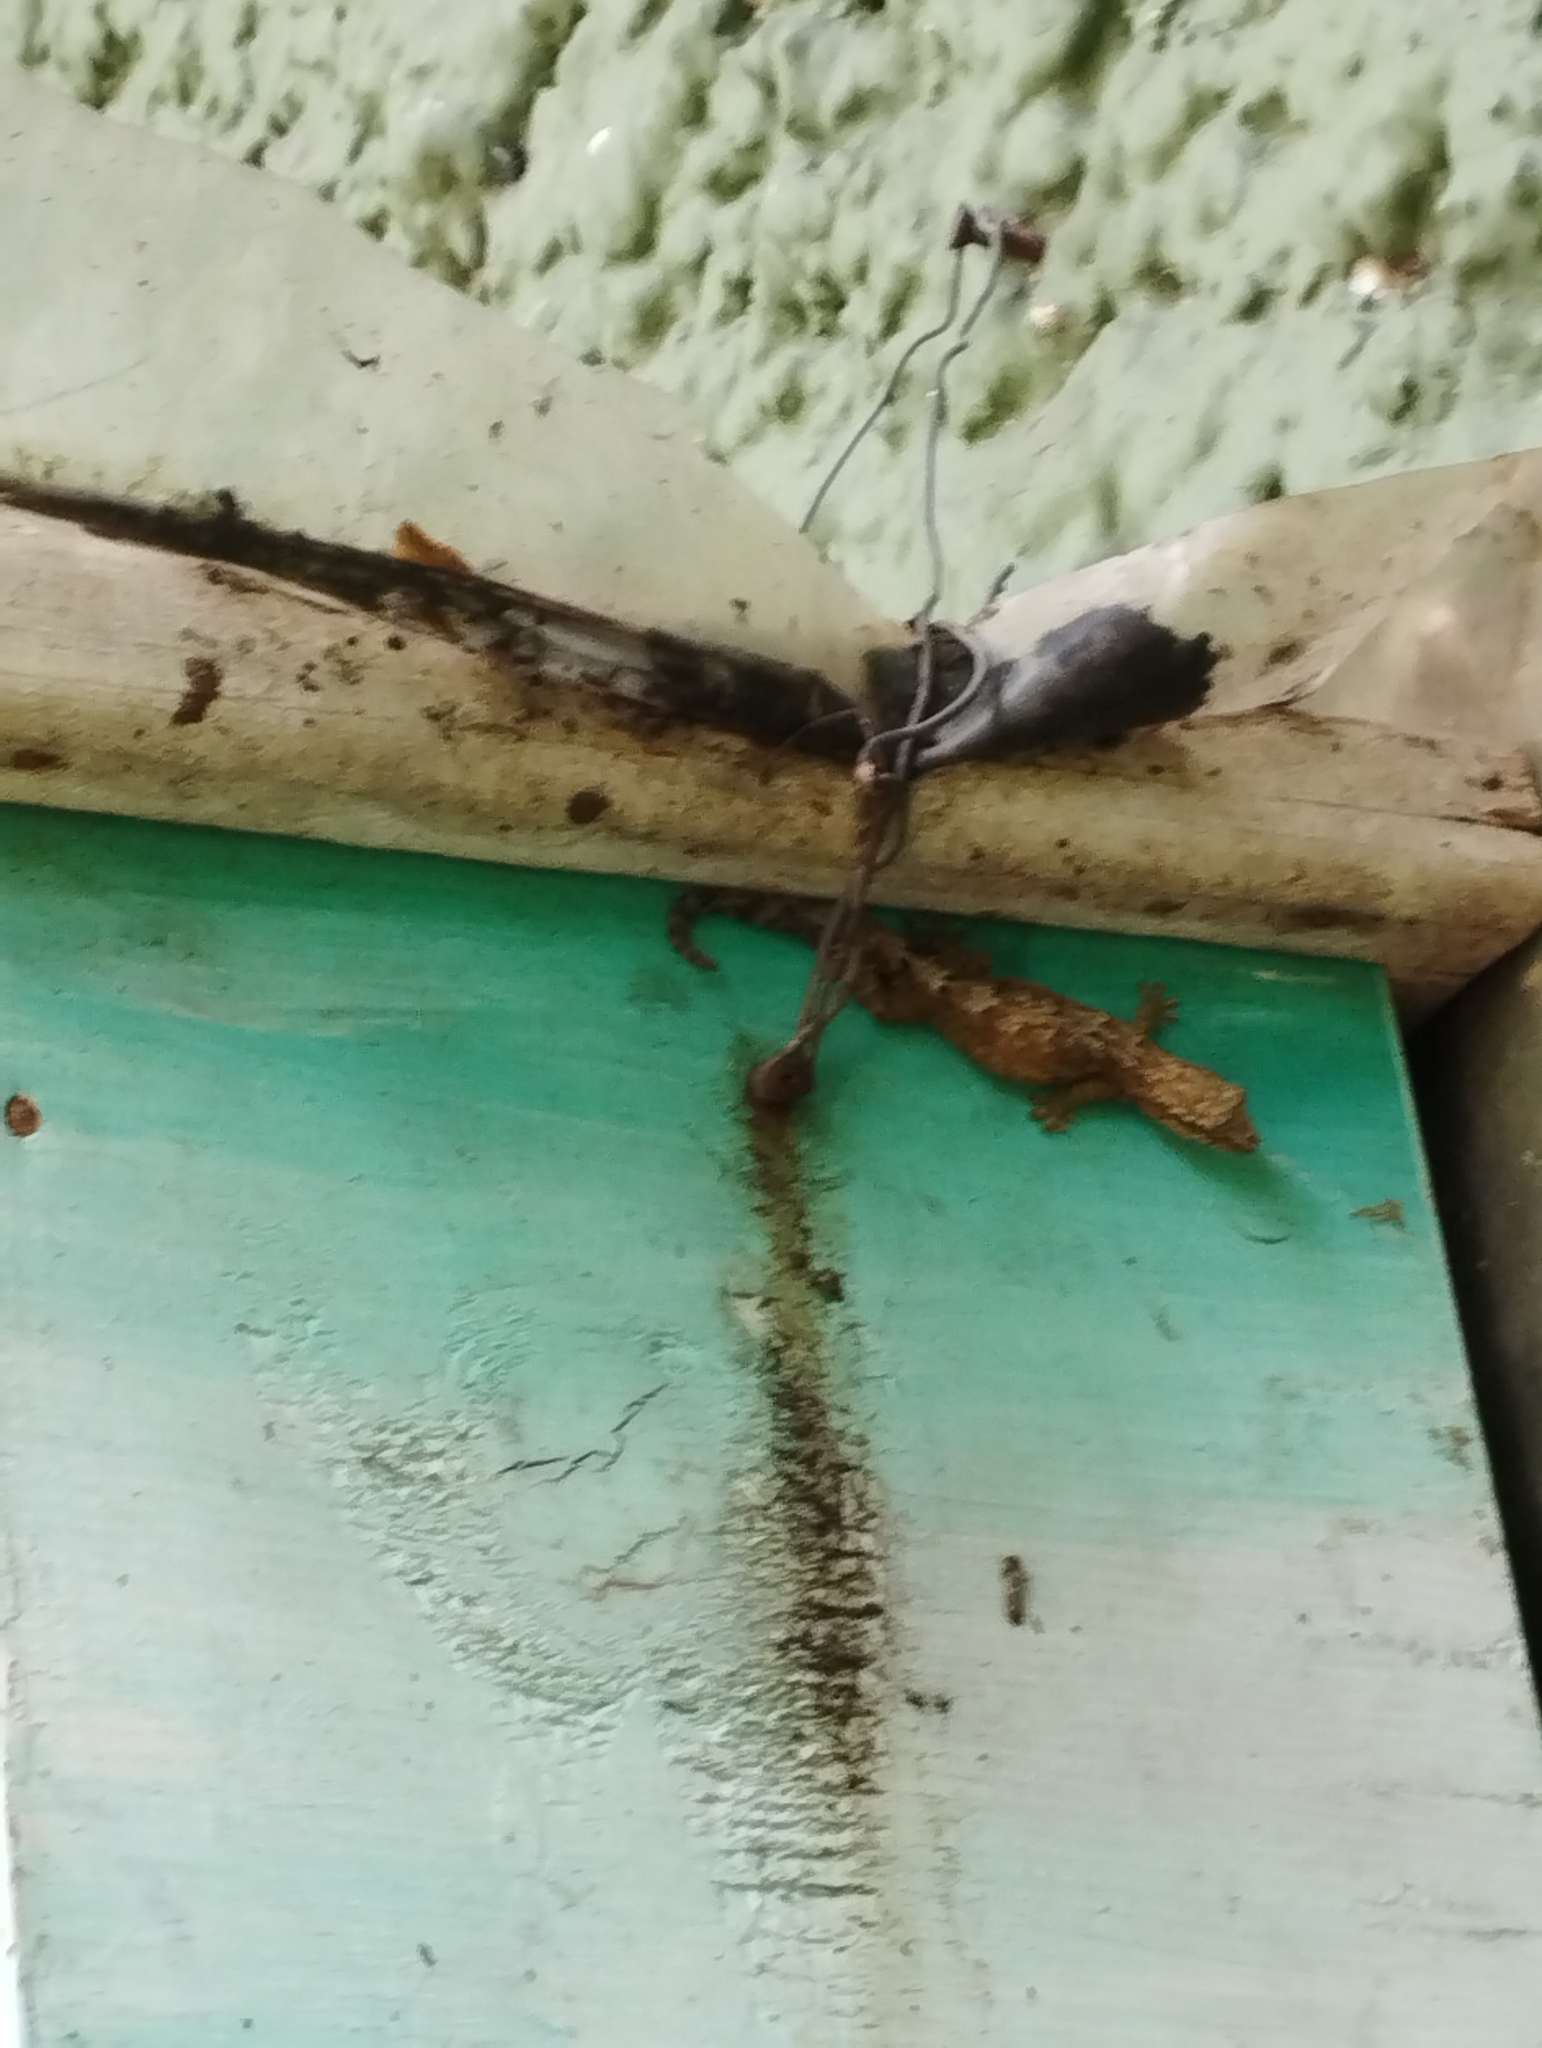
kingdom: Animalia
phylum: Chordata
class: Squamata
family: Gekkonidae
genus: Lepidodactylus
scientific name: Lepidodactylus lugubris
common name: Mourning gecko
